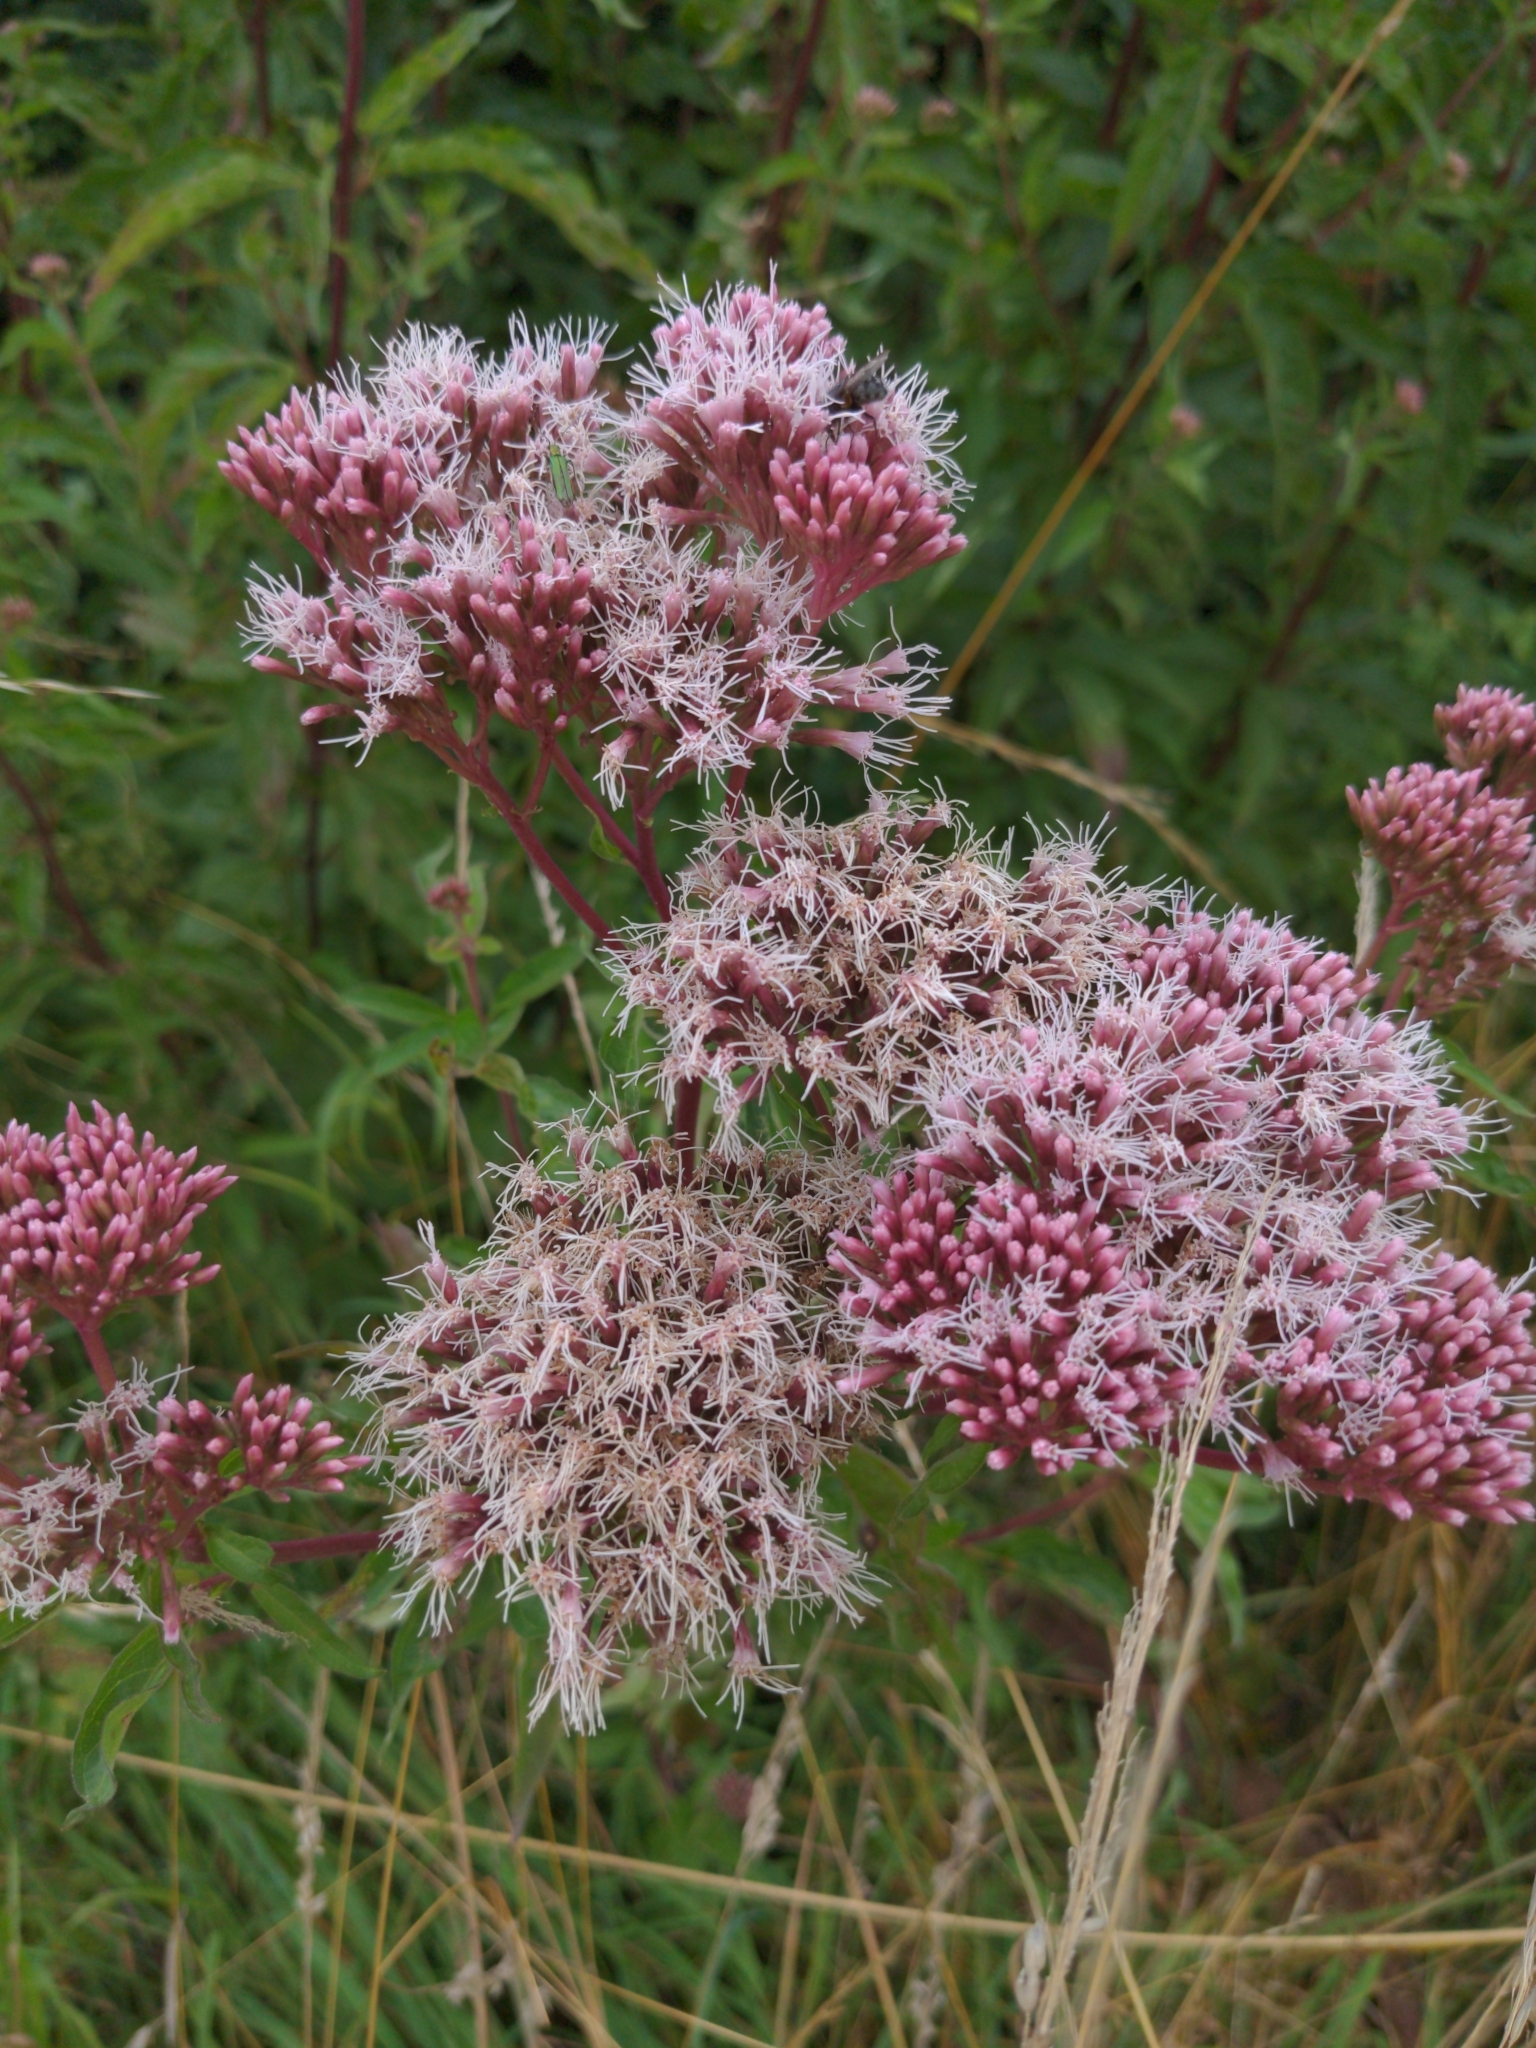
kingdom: Plantae
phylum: Tracheophyta
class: Magnoliopsida
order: Asterales
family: Asteraceae
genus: Eupatorium
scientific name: Eupatorium cannabinum
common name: Hemp-agrimony
